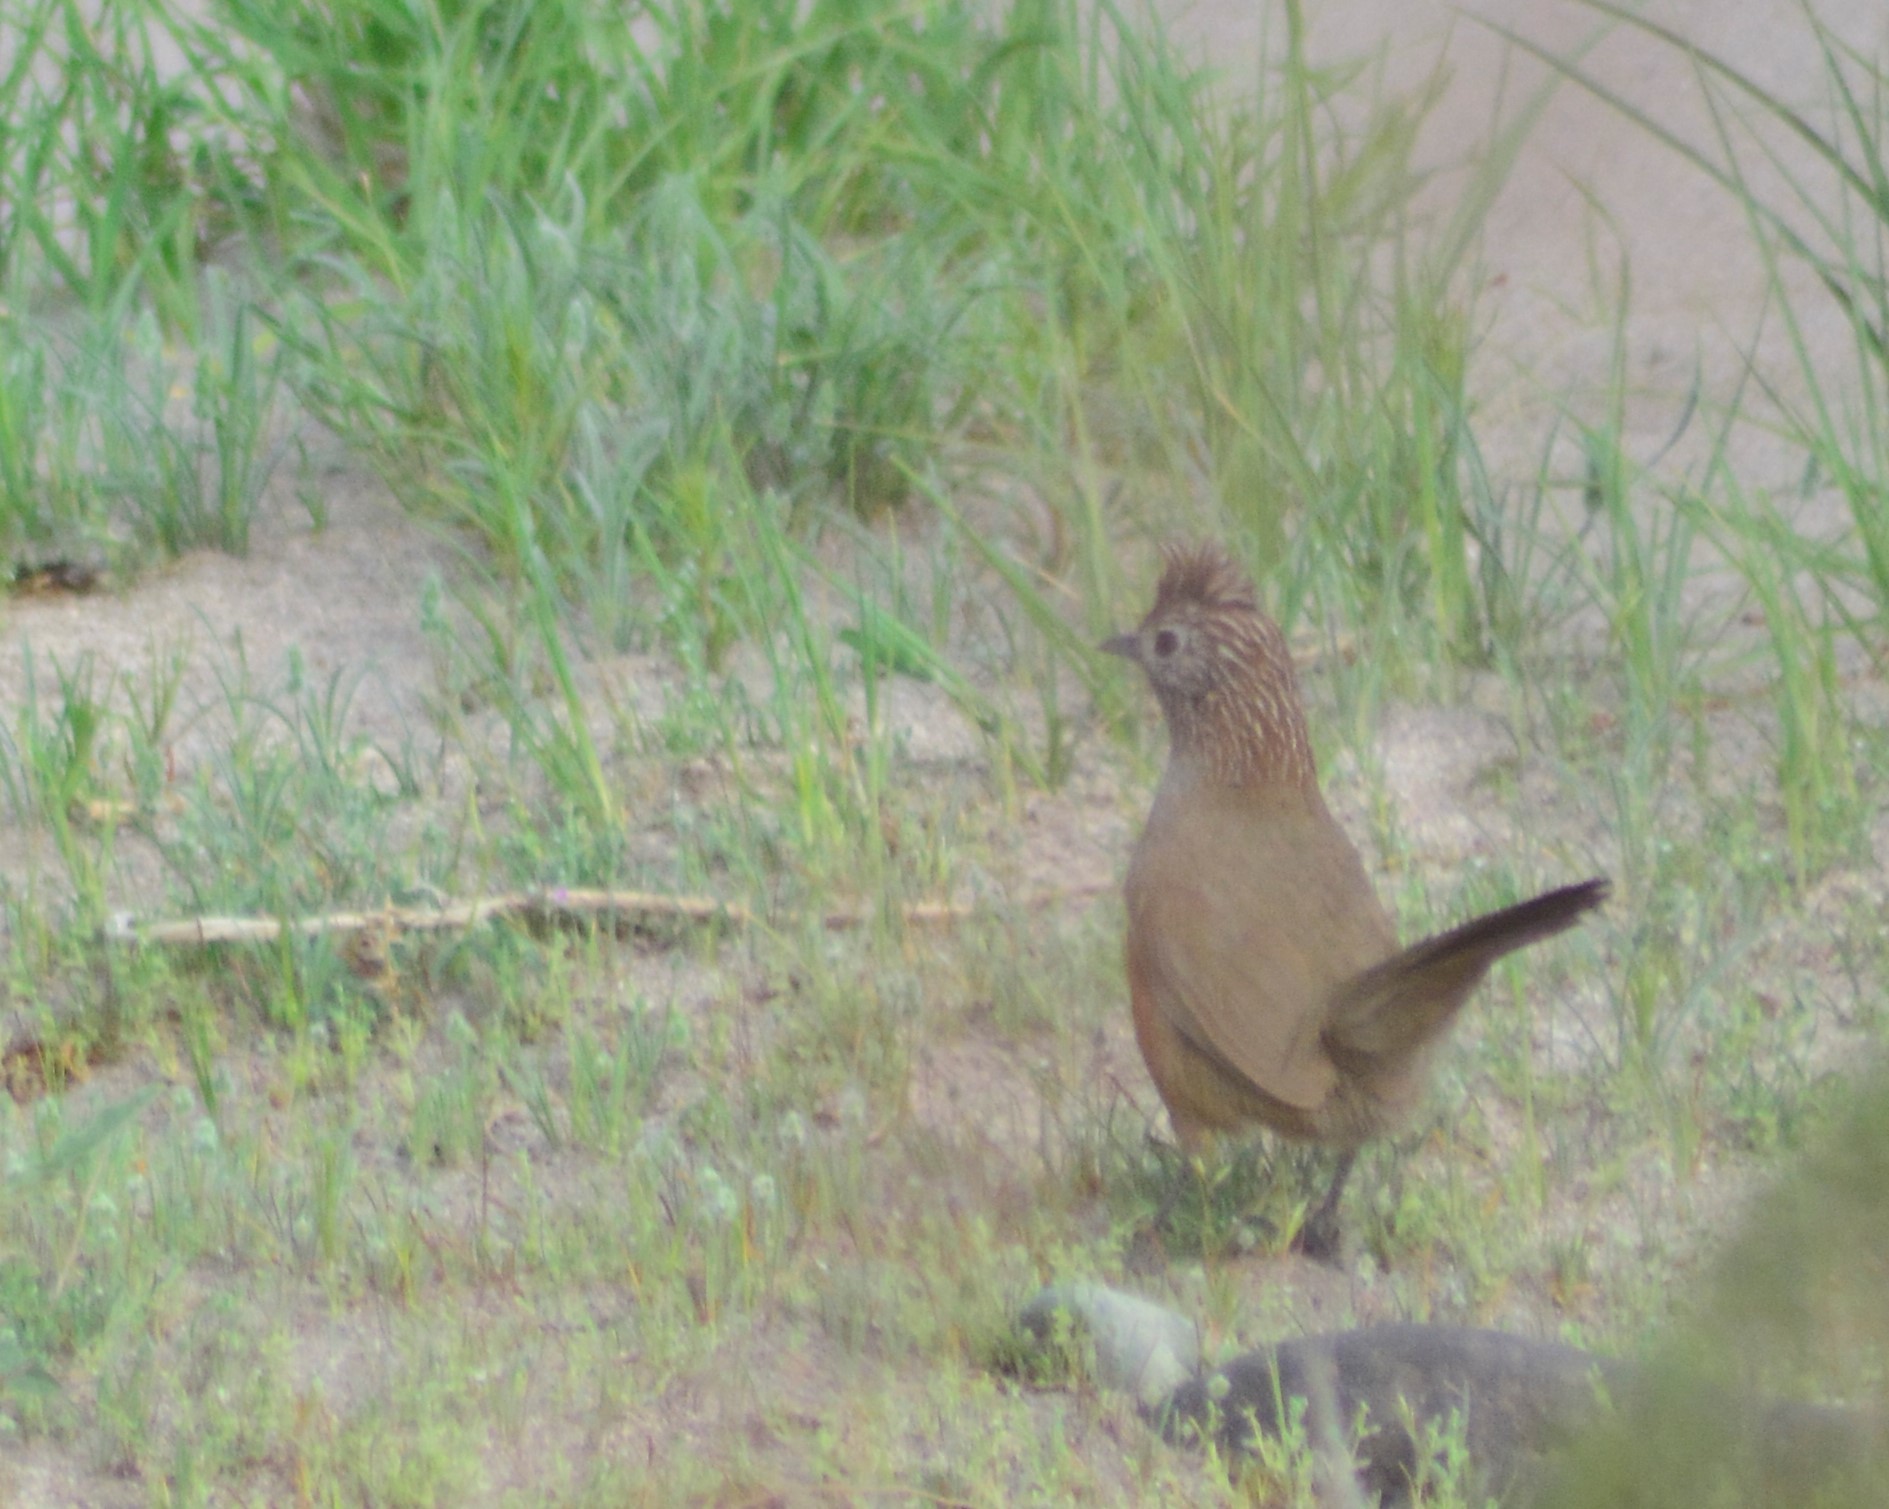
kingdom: Animalia
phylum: Chordata
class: Aves
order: Passeriformes
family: Rhinocryptidae
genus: Rhinocrypta
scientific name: Rhinocrypta lanceolata
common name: Crested gallito
